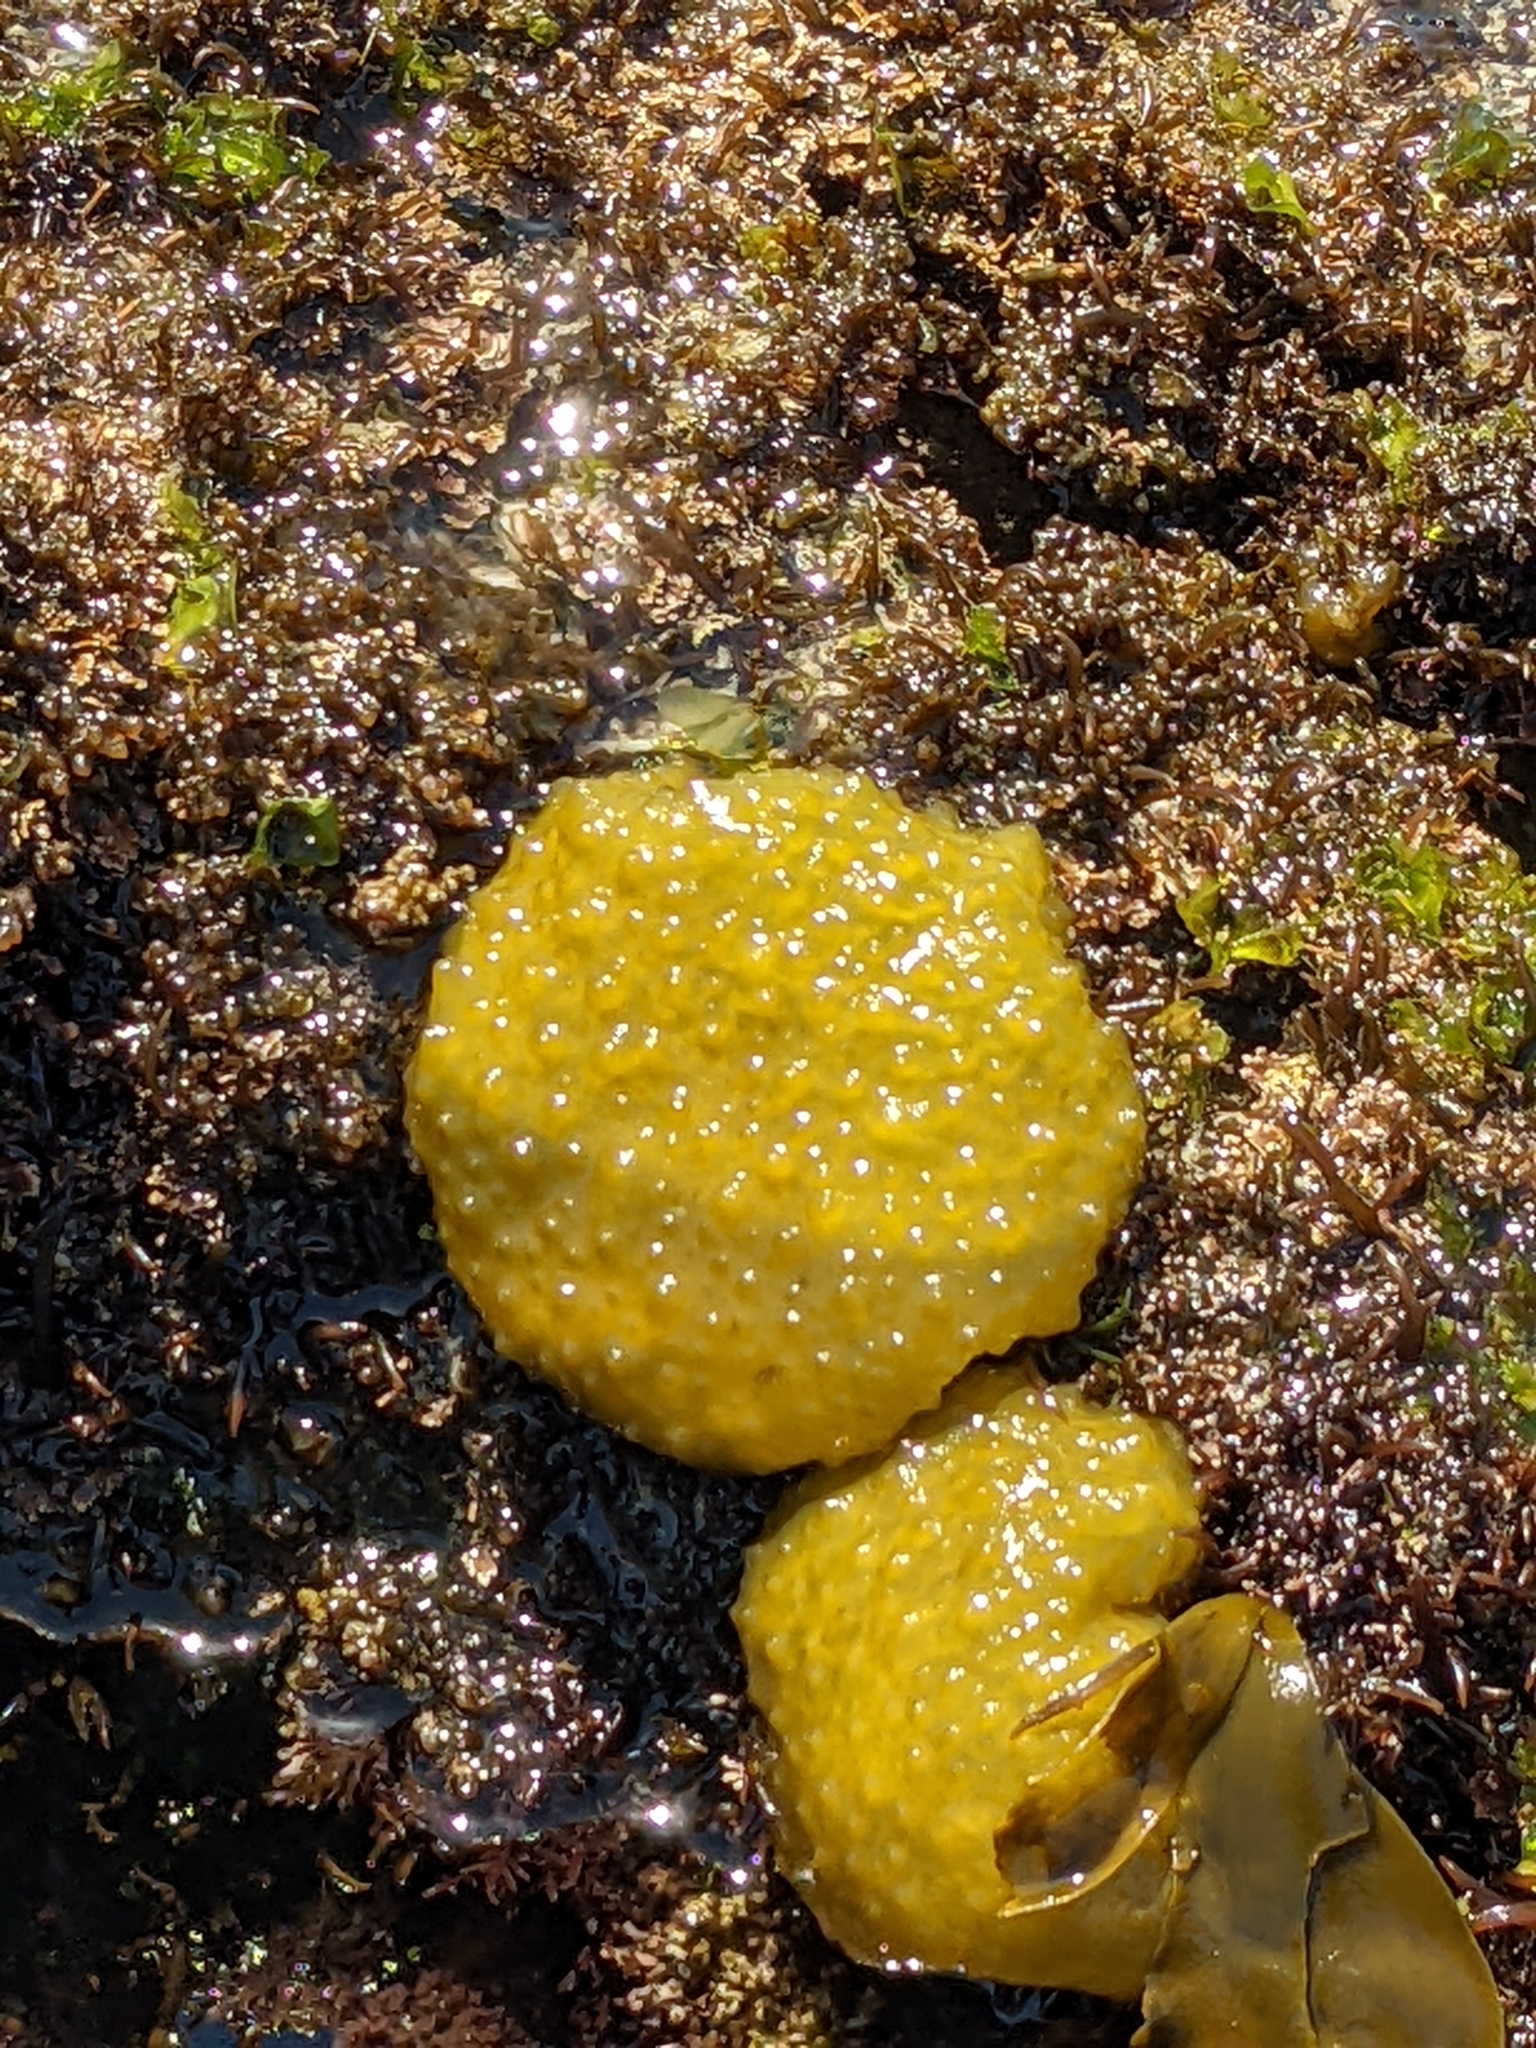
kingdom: Chromista
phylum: Ochrophyta
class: Phaeophyceae
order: Scytosiphonales
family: Scytosiphonaceae
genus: Colpomenia
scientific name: Colpomenia
